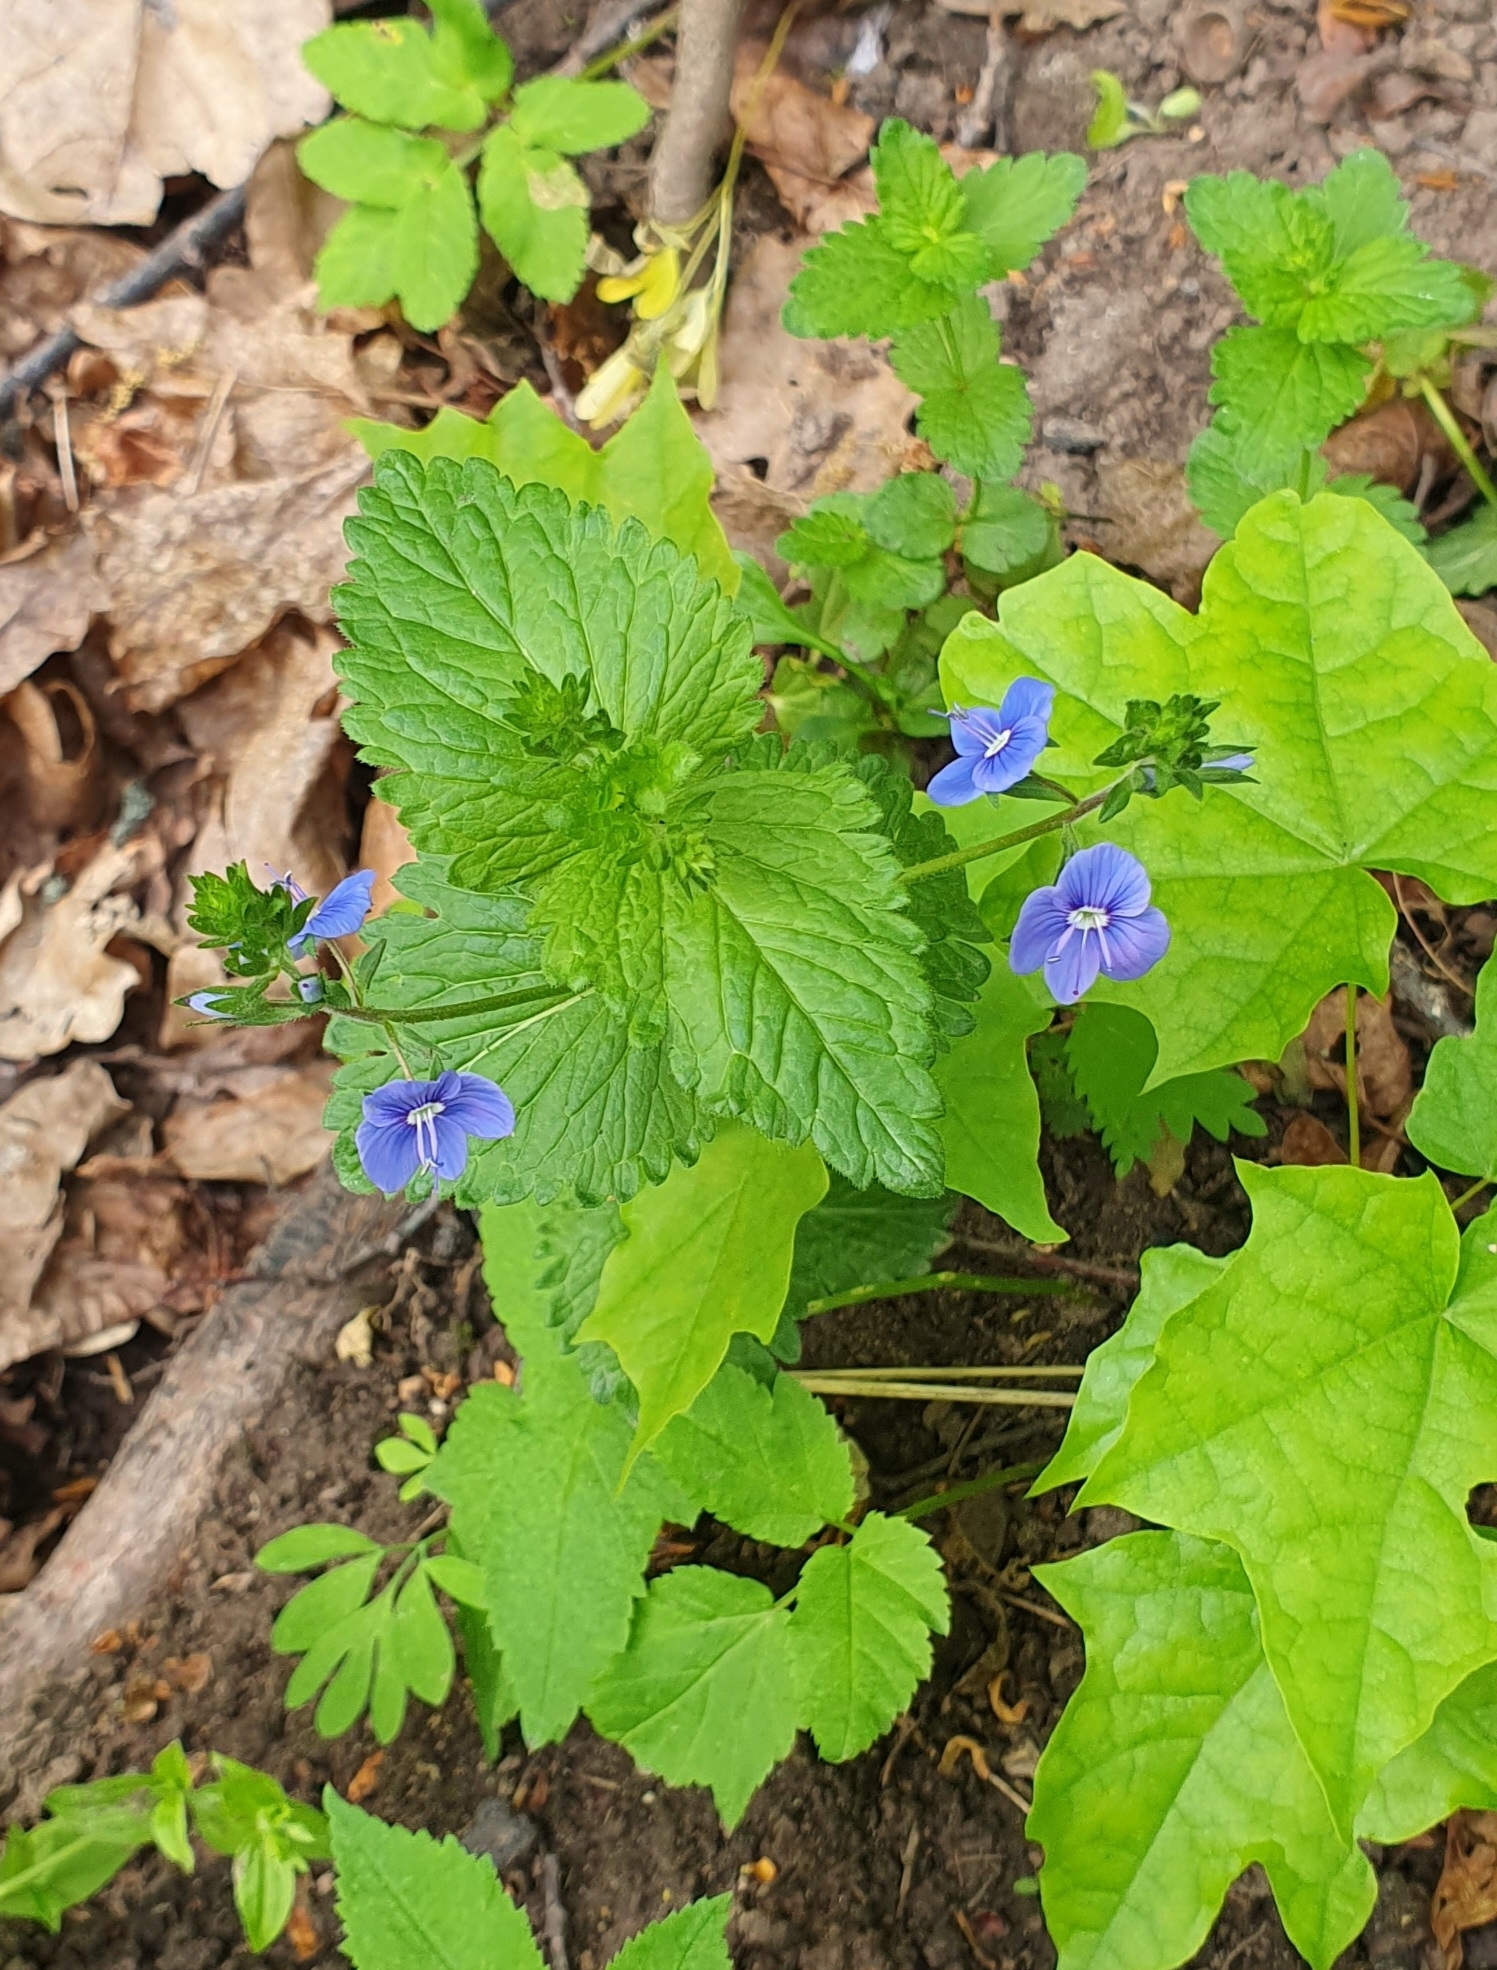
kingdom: Plantae
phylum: Tracheophyta
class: Magnoliopsida
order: Lamiales
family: Plantaginaceae
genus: Veronica
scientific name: Veronica chamaedrys
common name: Germander speedwell
